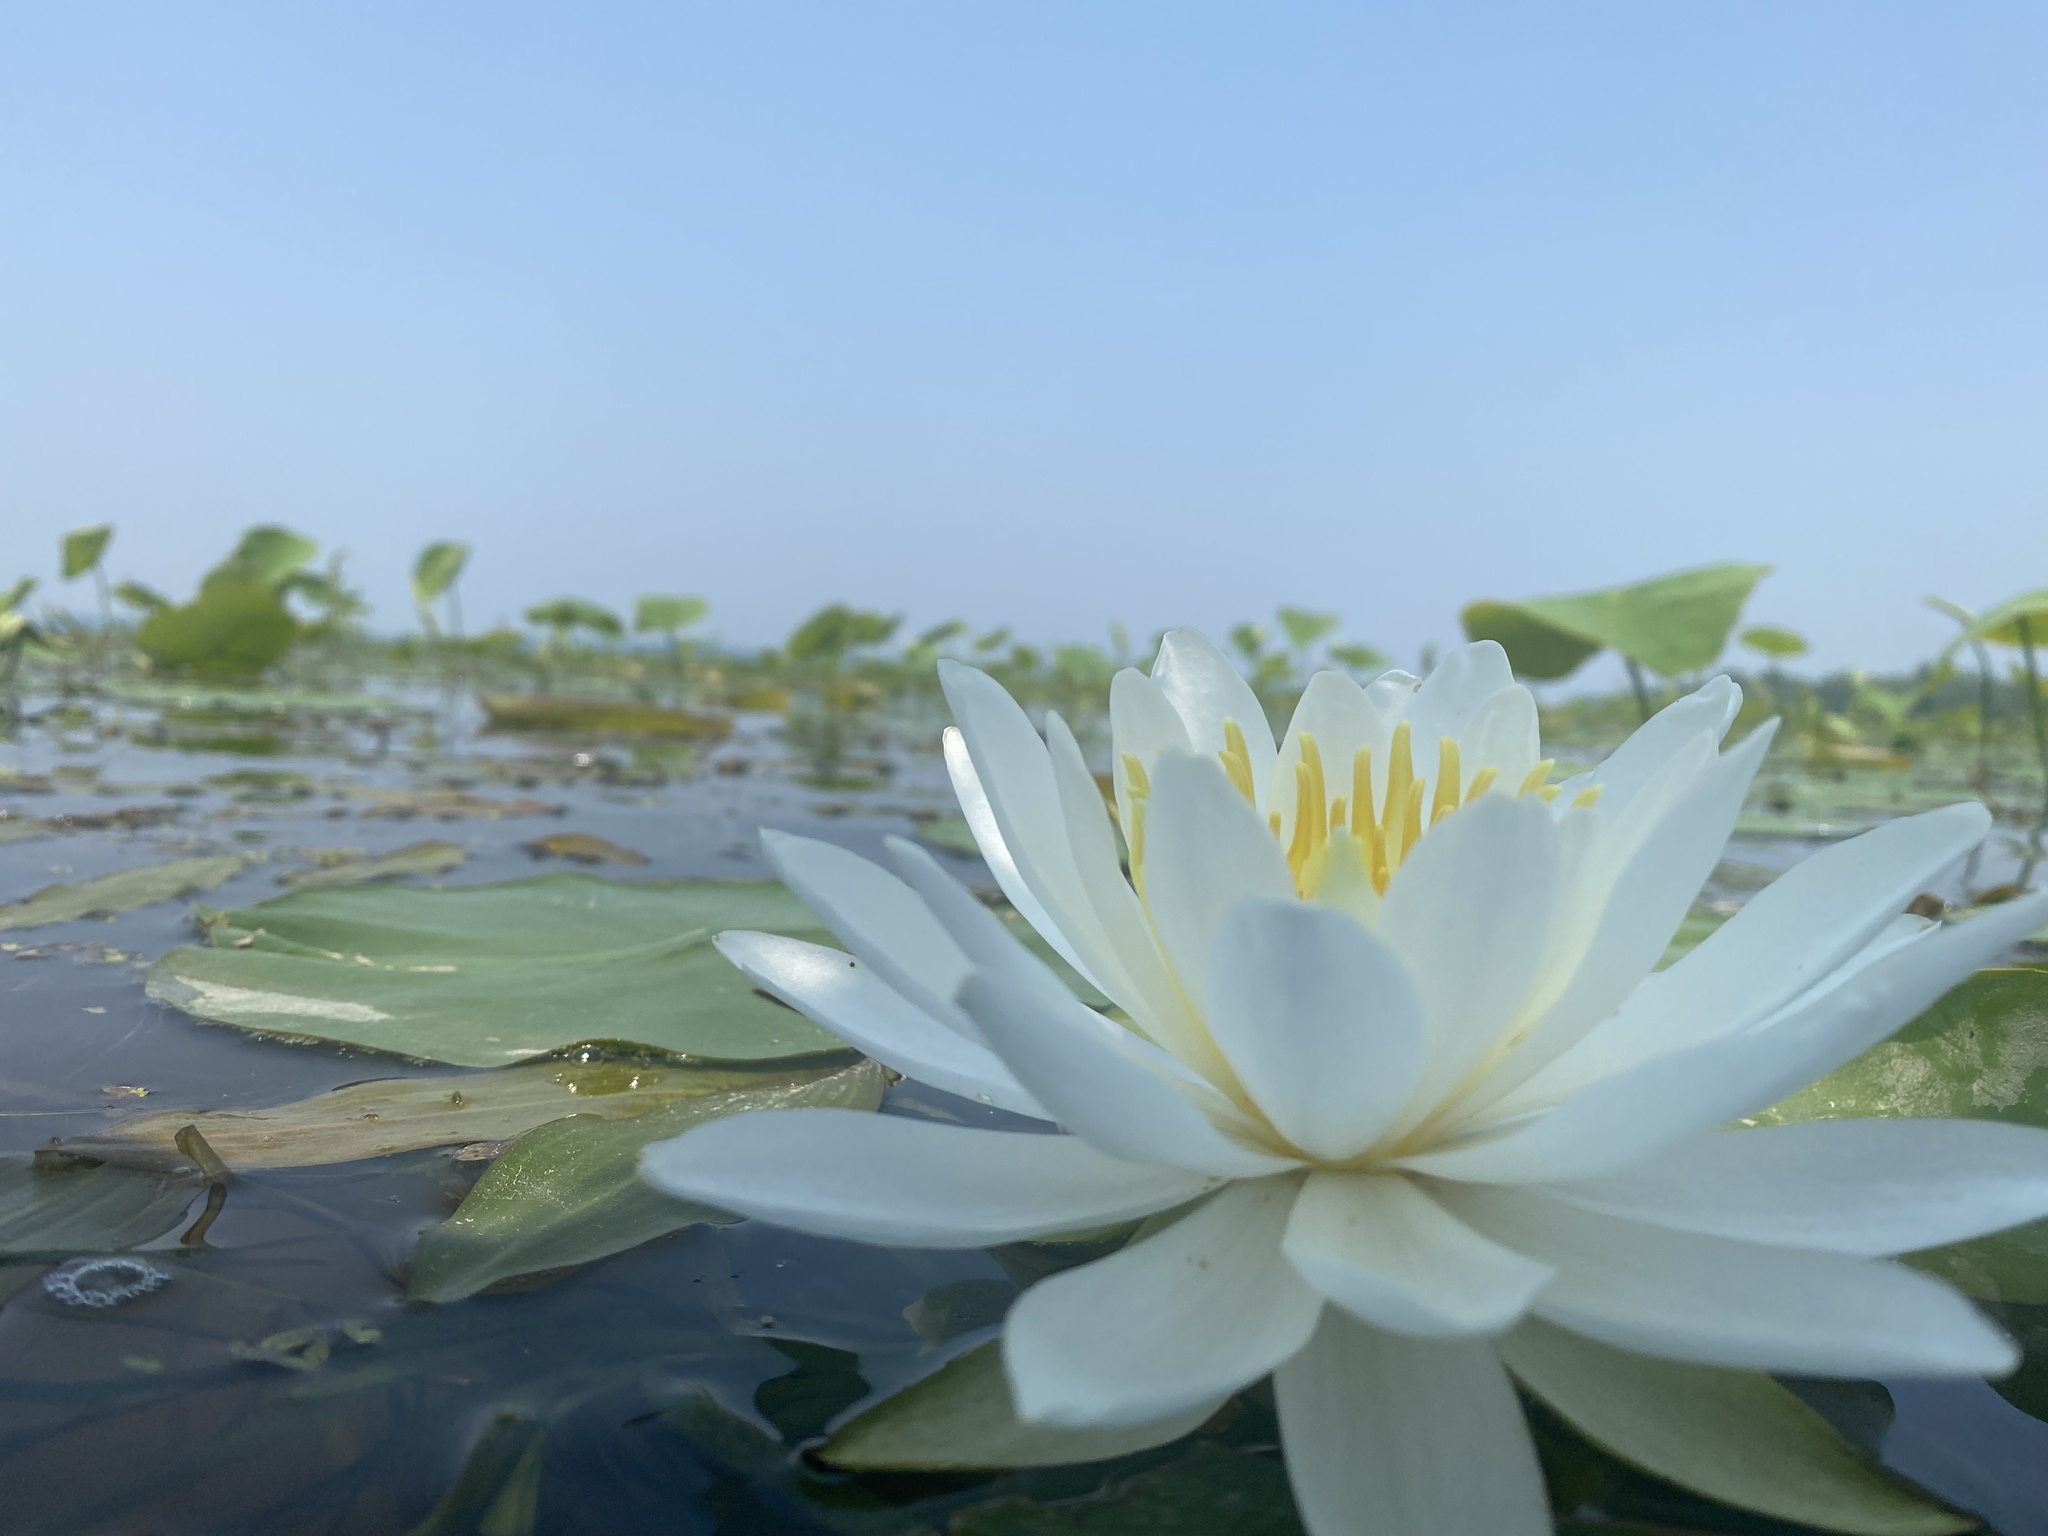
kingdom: Plantae
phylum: Tracheophyta
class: Magnoliopsida
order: Nymphaeales
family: Nymphaeaceae
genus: Nymphaea
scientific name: Nymphaea odorata
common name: Fragrant water-lily
